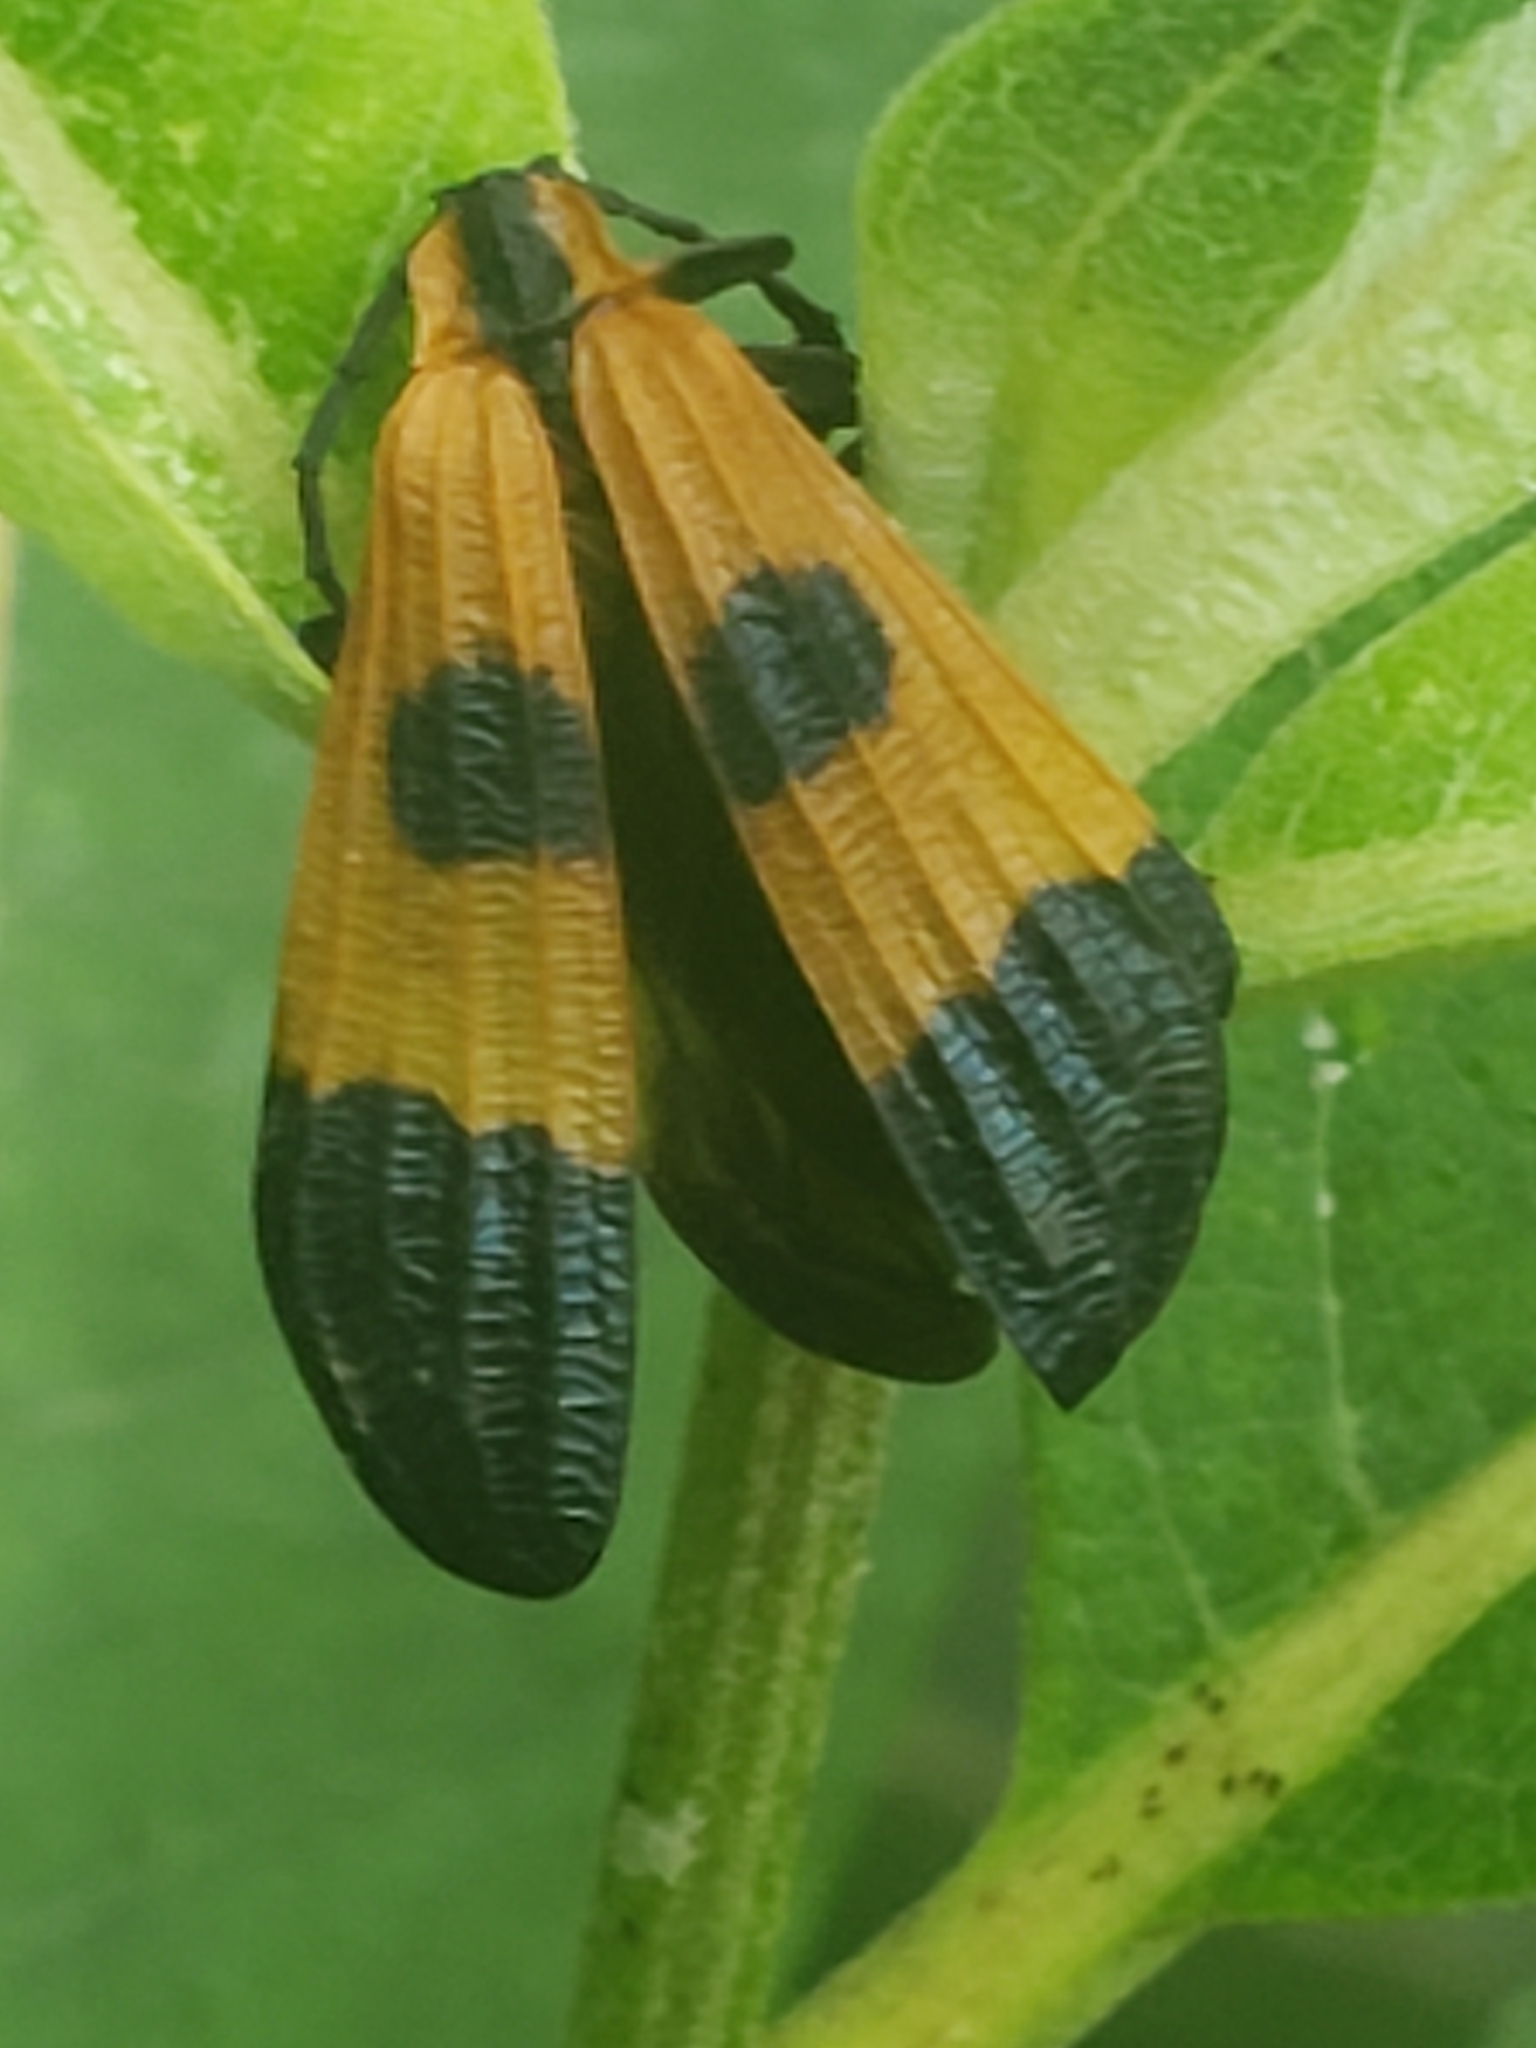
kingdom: Animalia
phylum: Arthropoda
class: Insecta
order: Coleoptera
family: Lycidae
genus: Calopteron
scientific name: Calopteron terminale
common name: End band net-winged beetle
